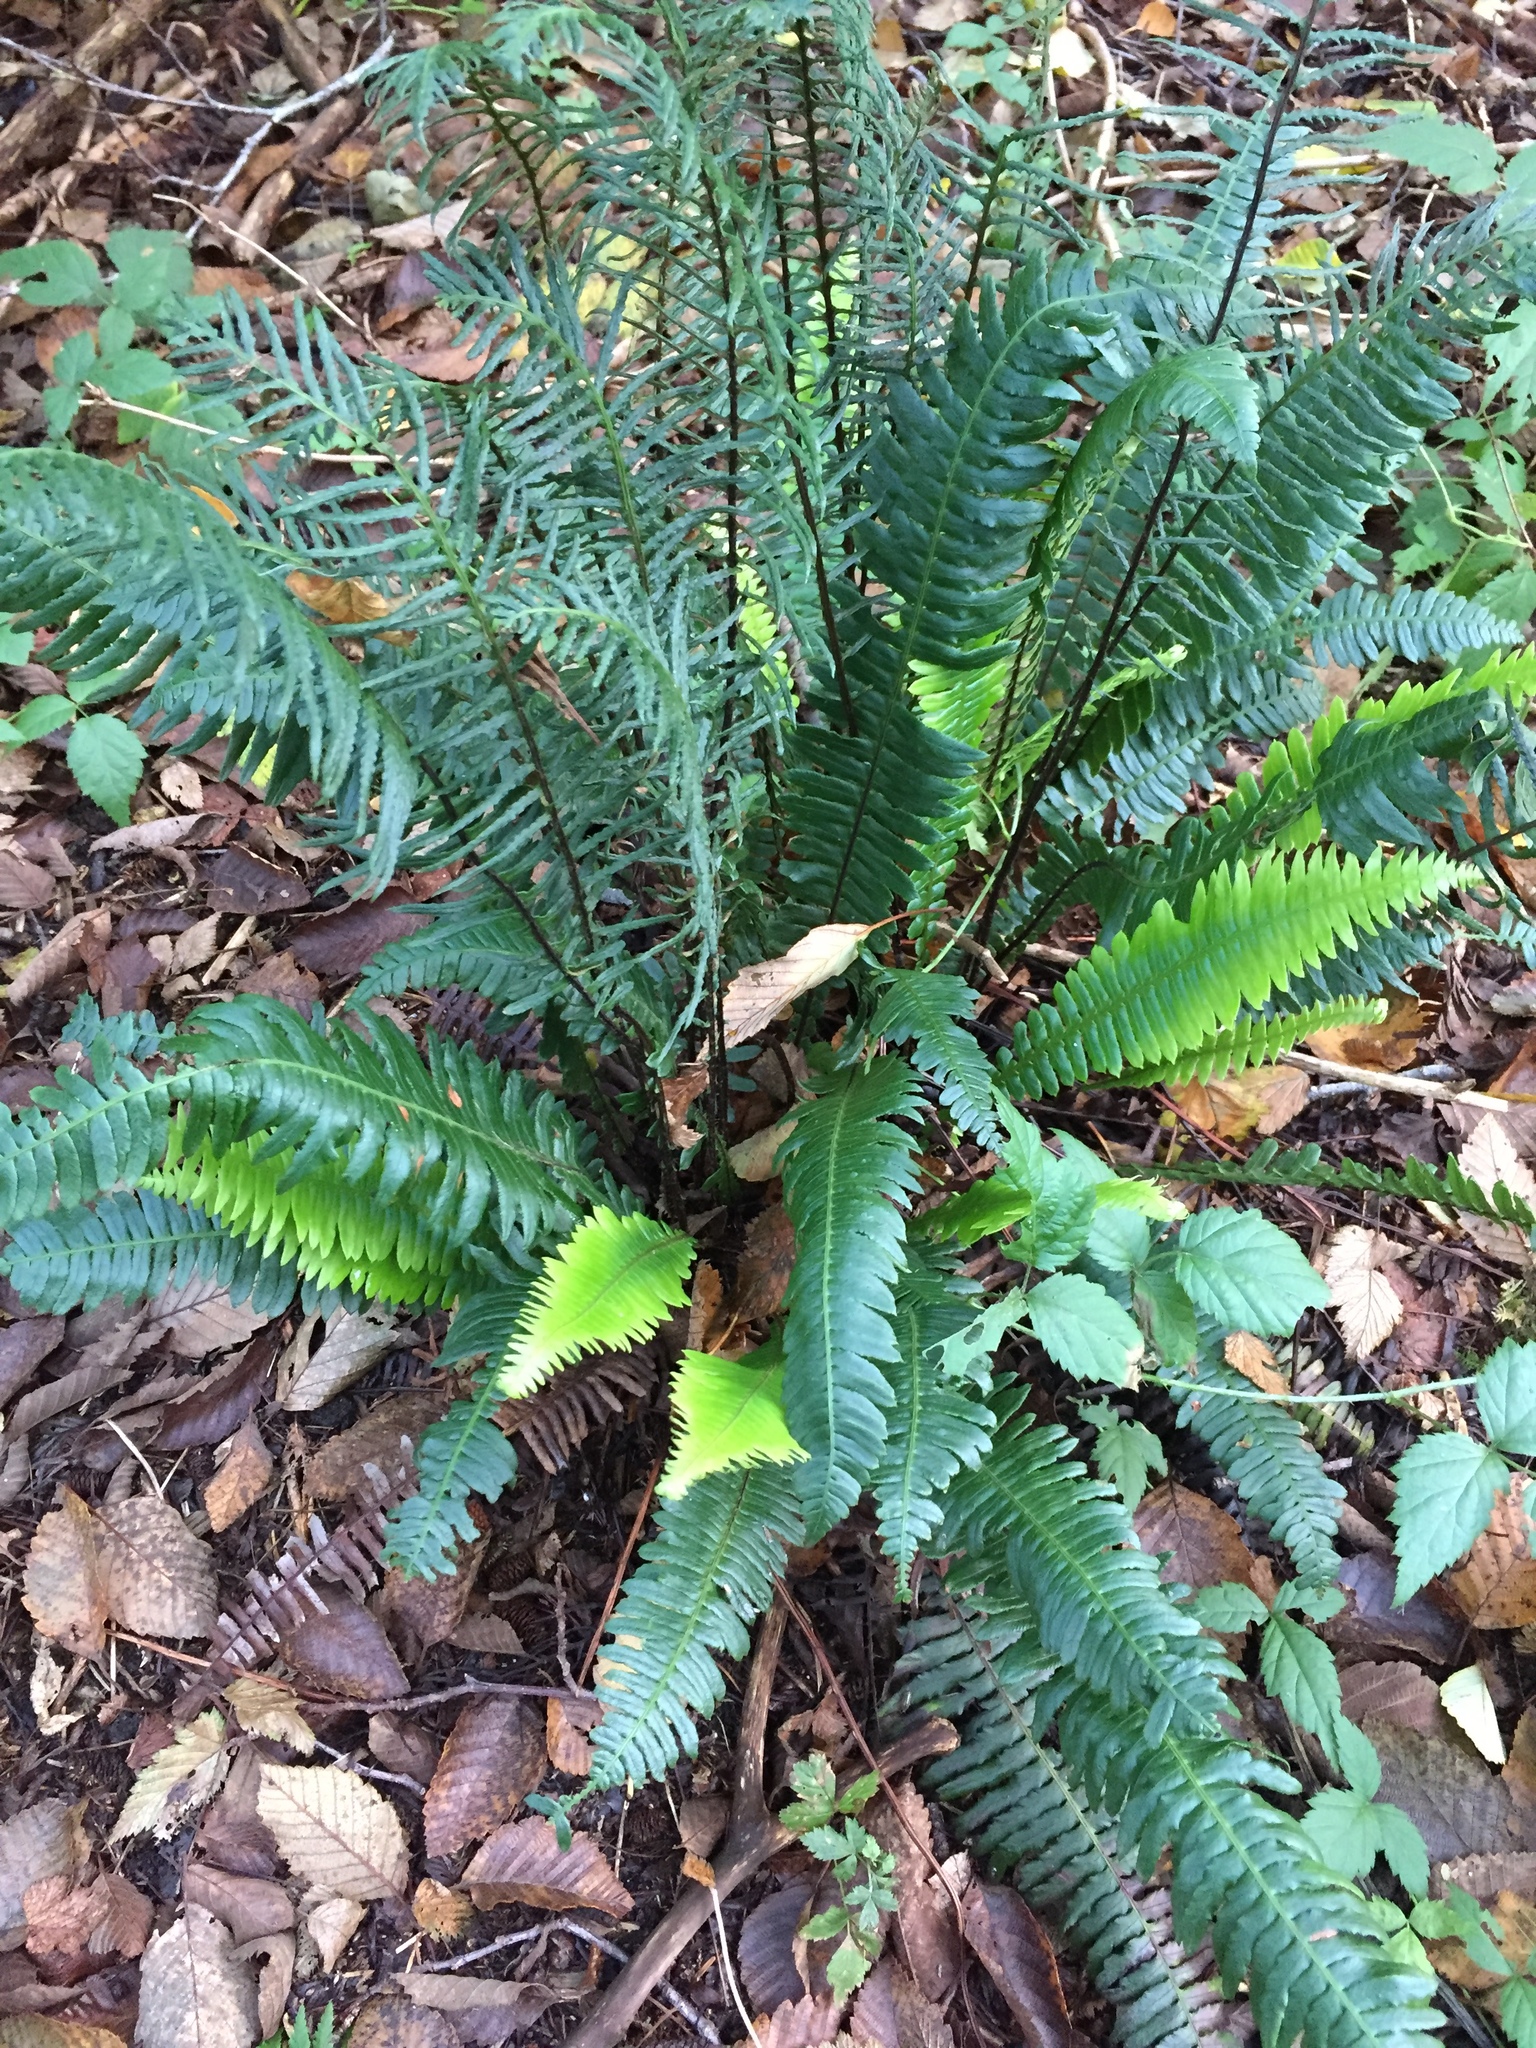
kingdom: Plantae
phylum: Tracheophyta
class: Polypodiopsida
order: Polypodiales
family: Blechnaceae
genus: Struthiopteris
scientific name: Struthiopteris spicant
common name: Deer fern
